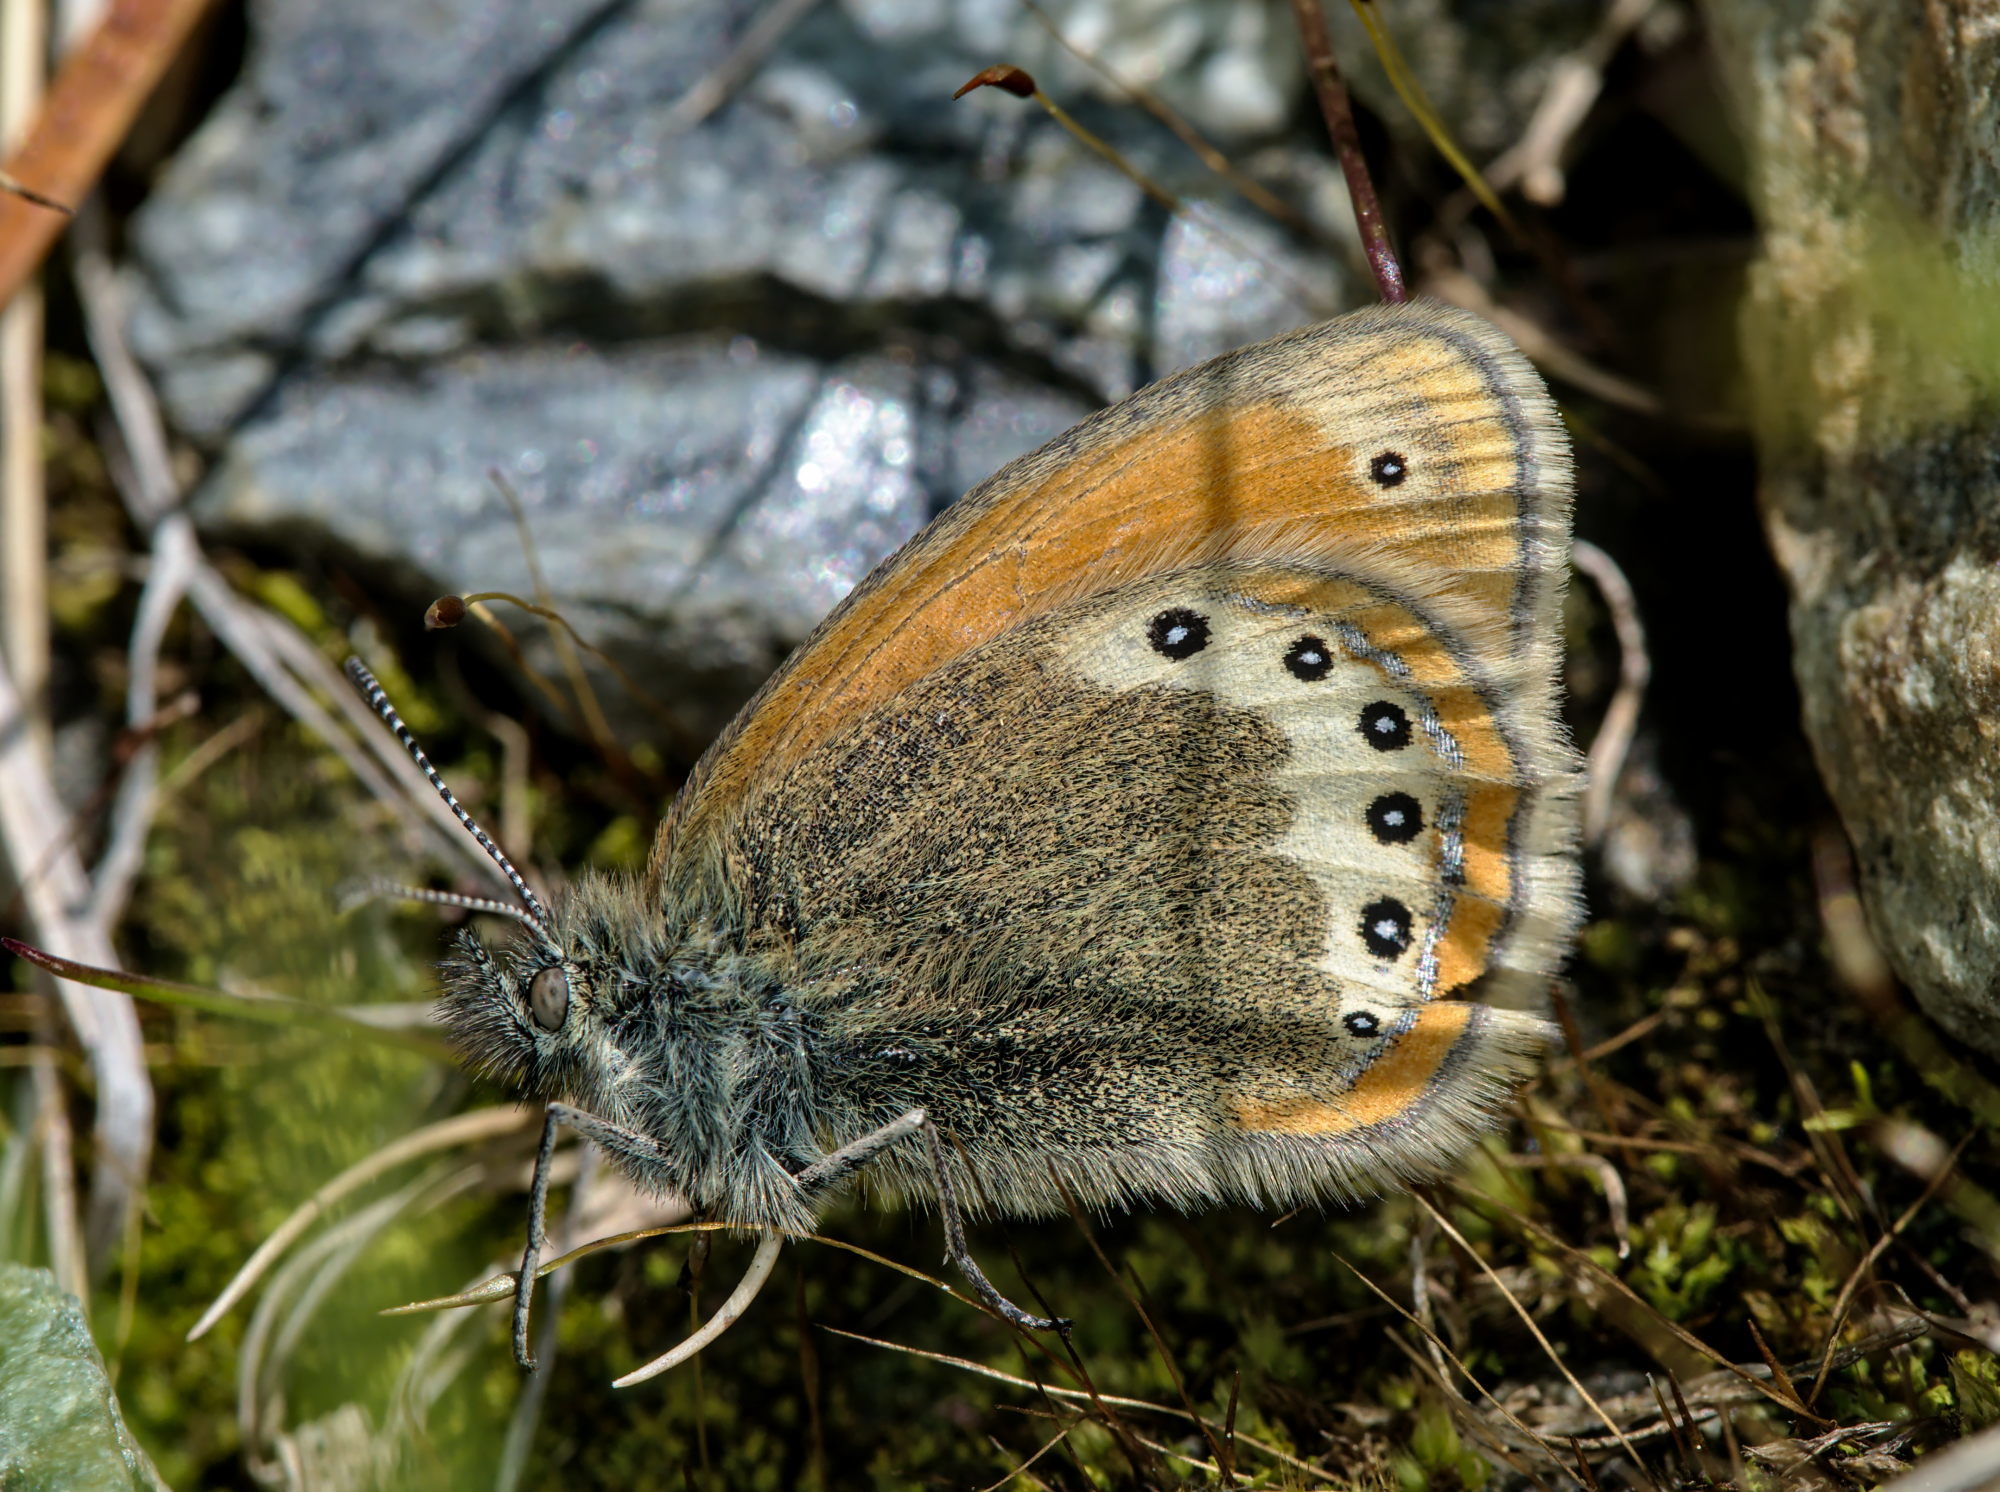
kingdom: Animalia
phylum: Arthropoda
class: Insecta
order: Lepidoptera
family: Nymphalidae
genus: Coenonympha
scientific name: Coenonympha
